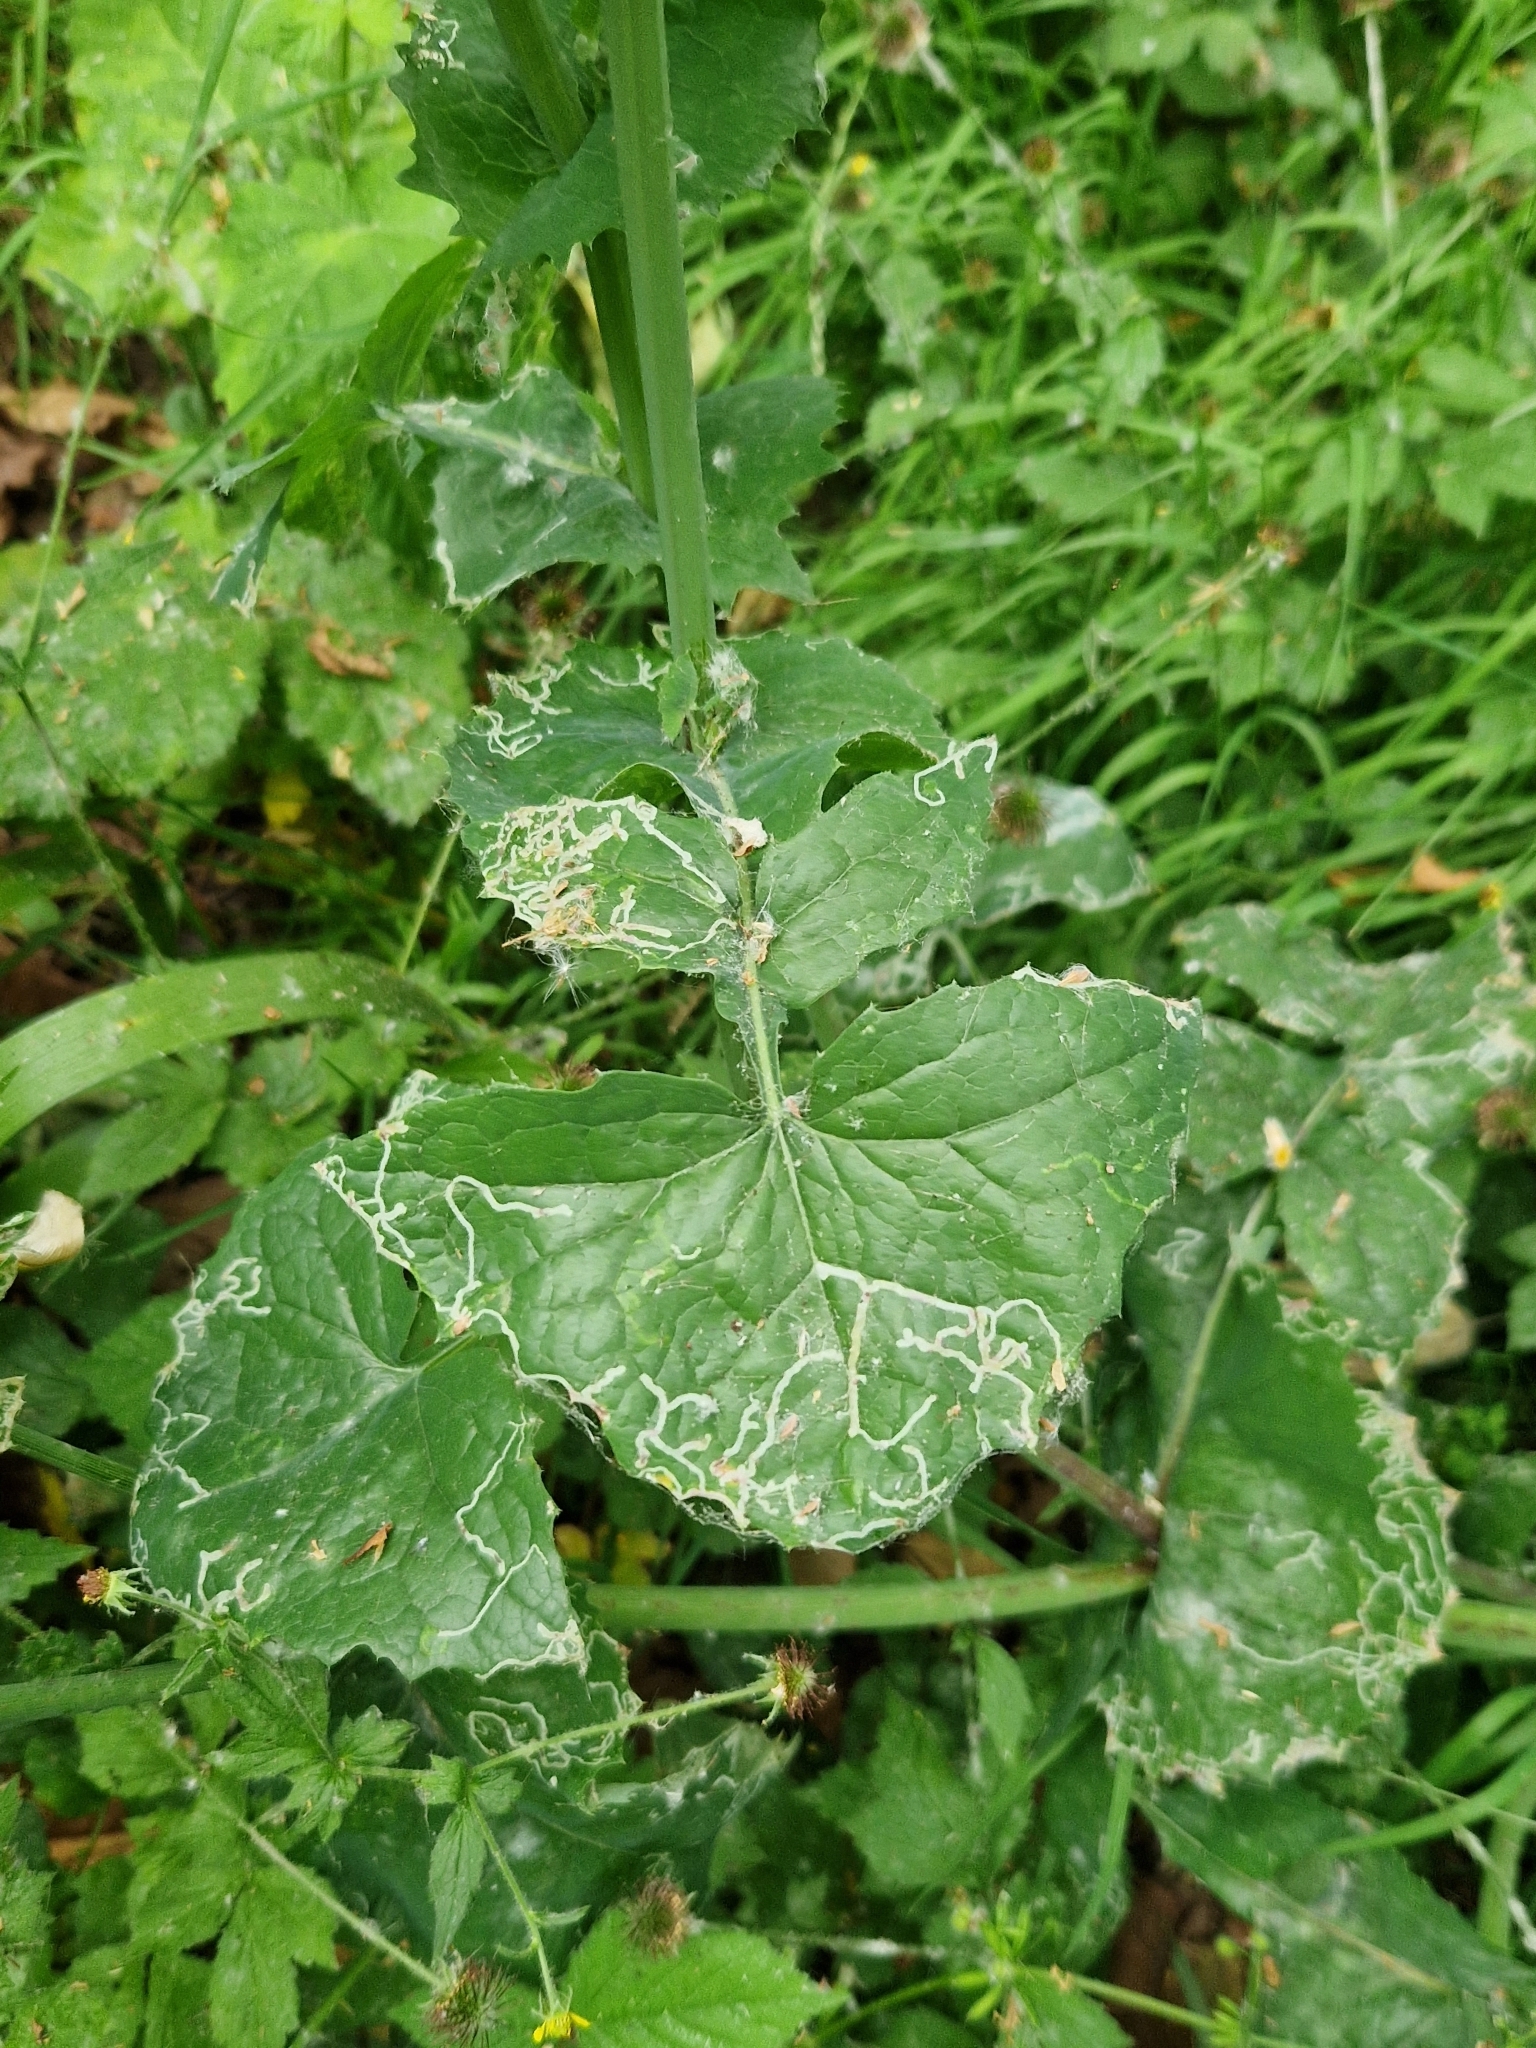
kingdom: Plantae
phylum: Tracheophyta
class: Magnoliopsida
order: Asterales
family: Asteraceae
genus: Sonchus
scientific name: Sonchus oleraceus
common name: Common sowthistle
